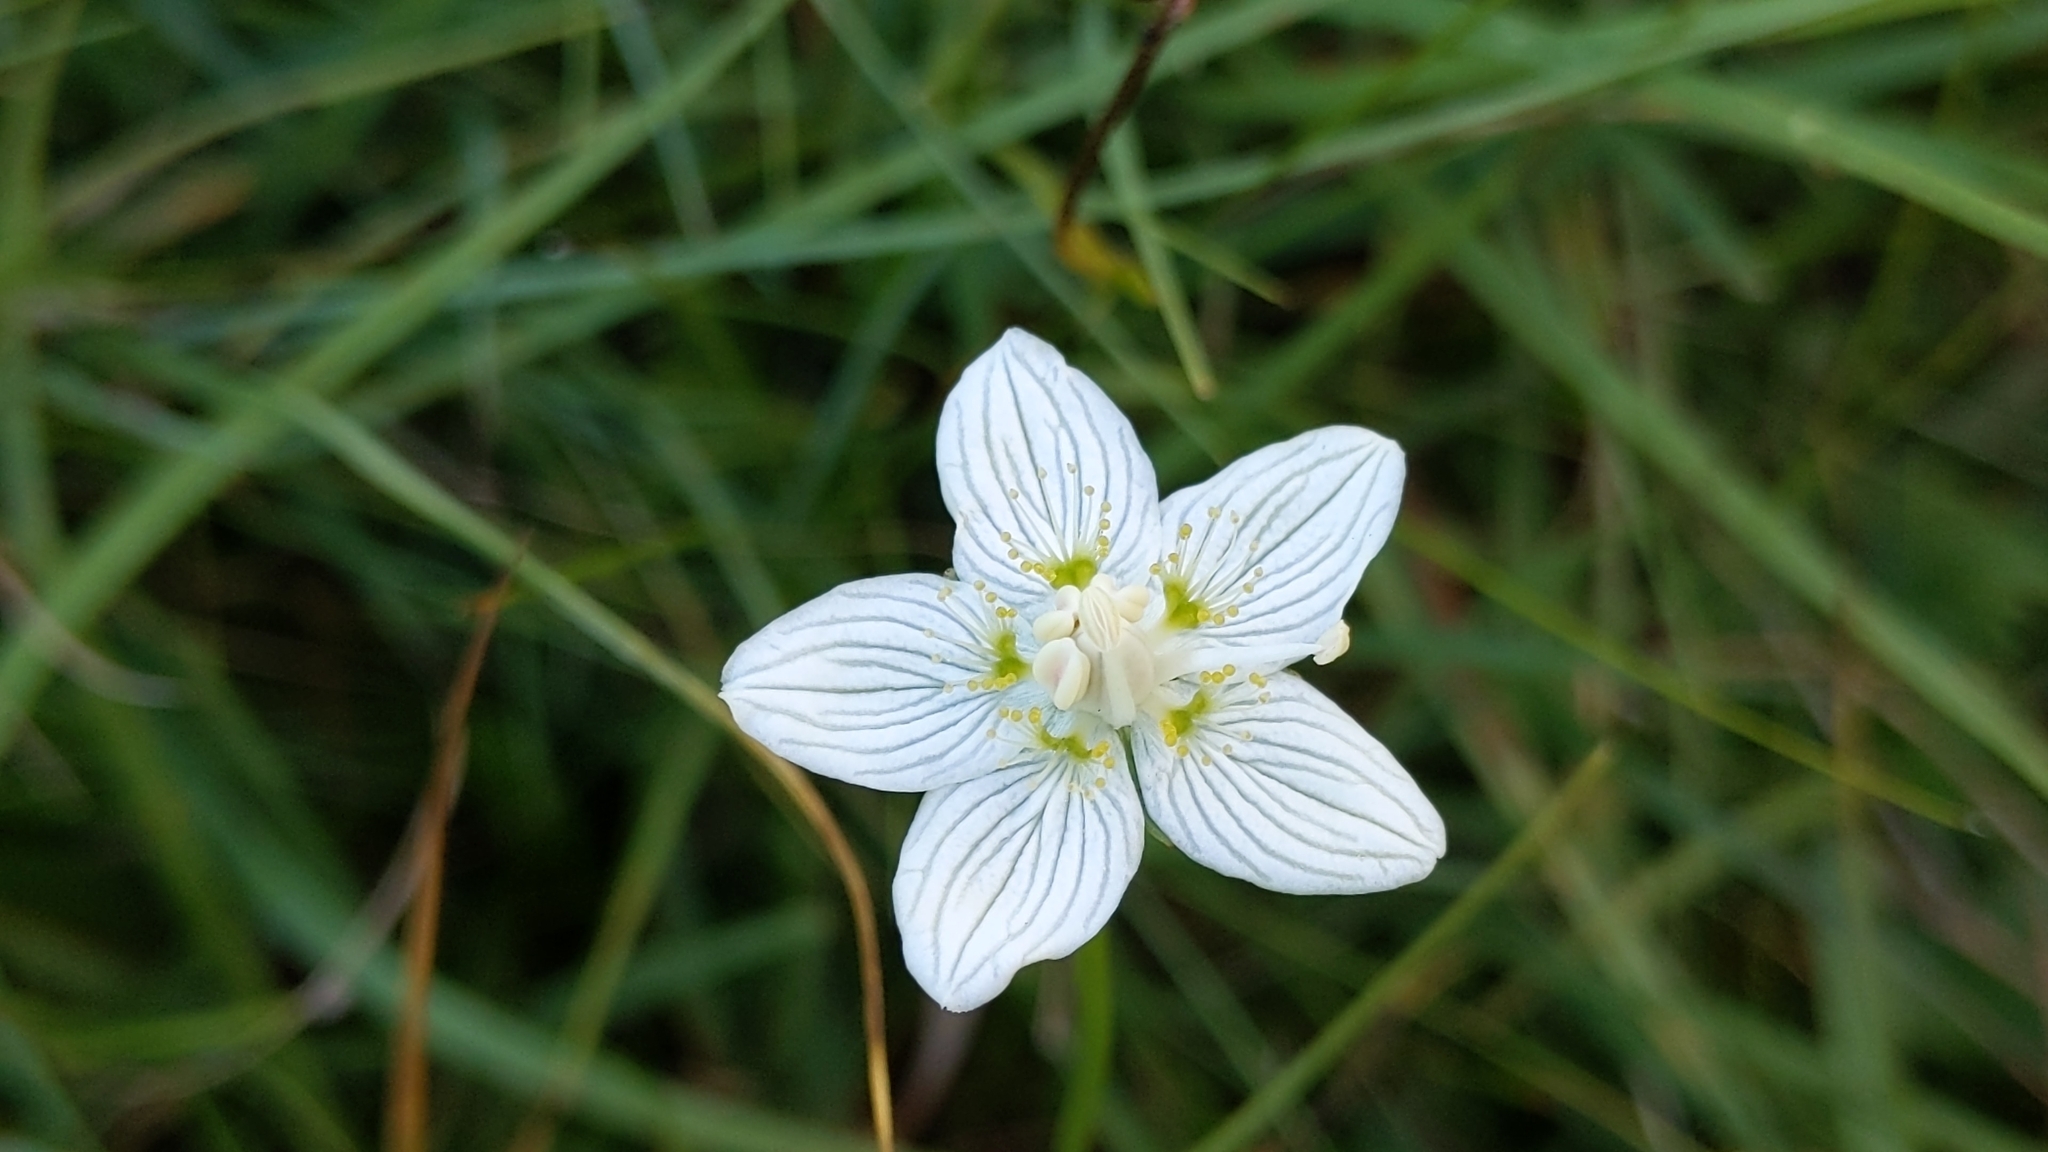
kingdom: Plantae
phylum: Tracheophyta
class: Magnoliopsida
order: Celastrales
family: Parnassiaceae
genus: Parnassia
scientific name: Parnassia palustris
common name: Grass-of-parnassus
